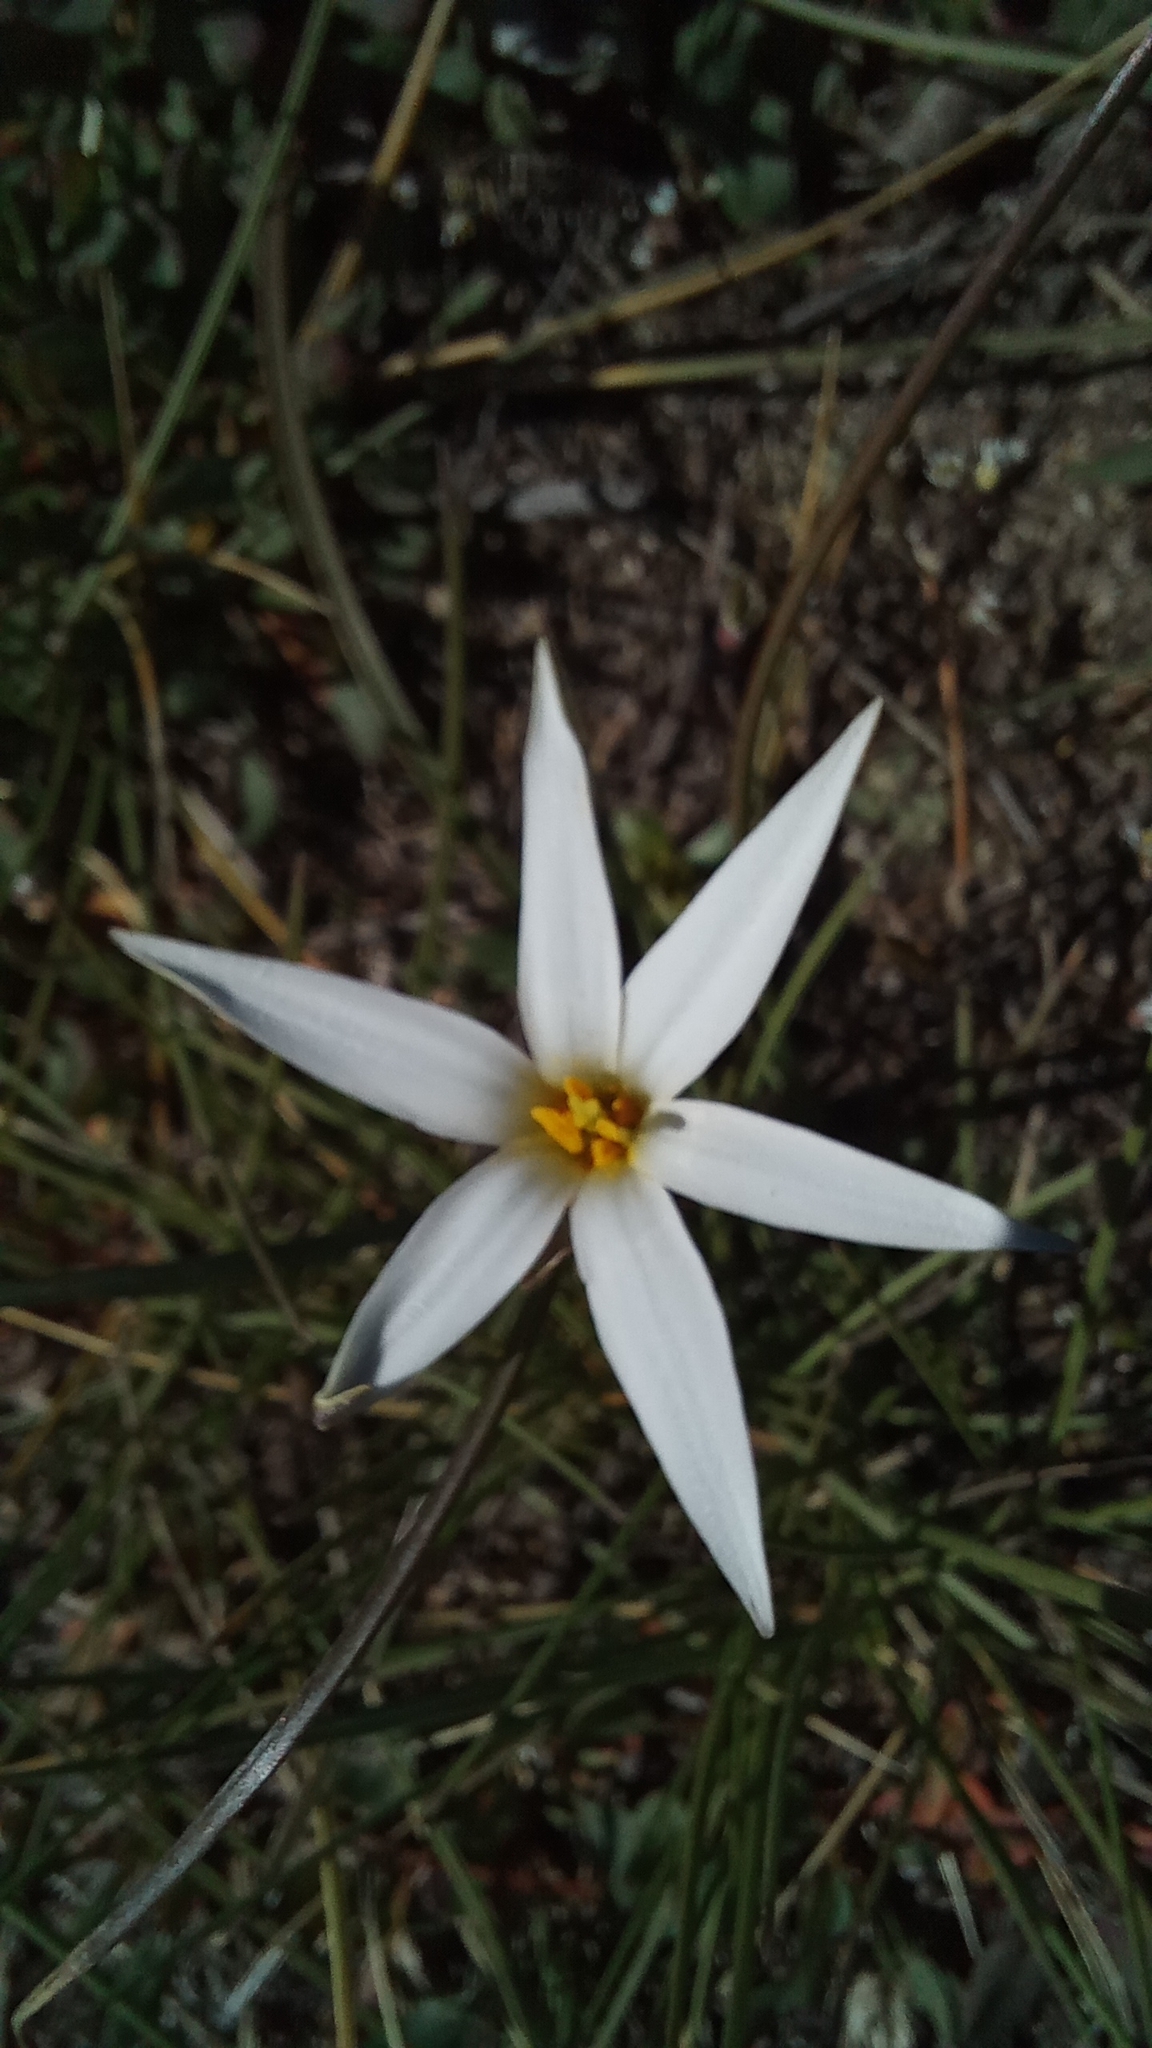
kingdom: Plantae
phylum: Tracheophyta
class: Liliopsida
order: Asparagales
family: Amaryllidaceae
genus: Tristagma
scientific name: Tristagma patagonicum
